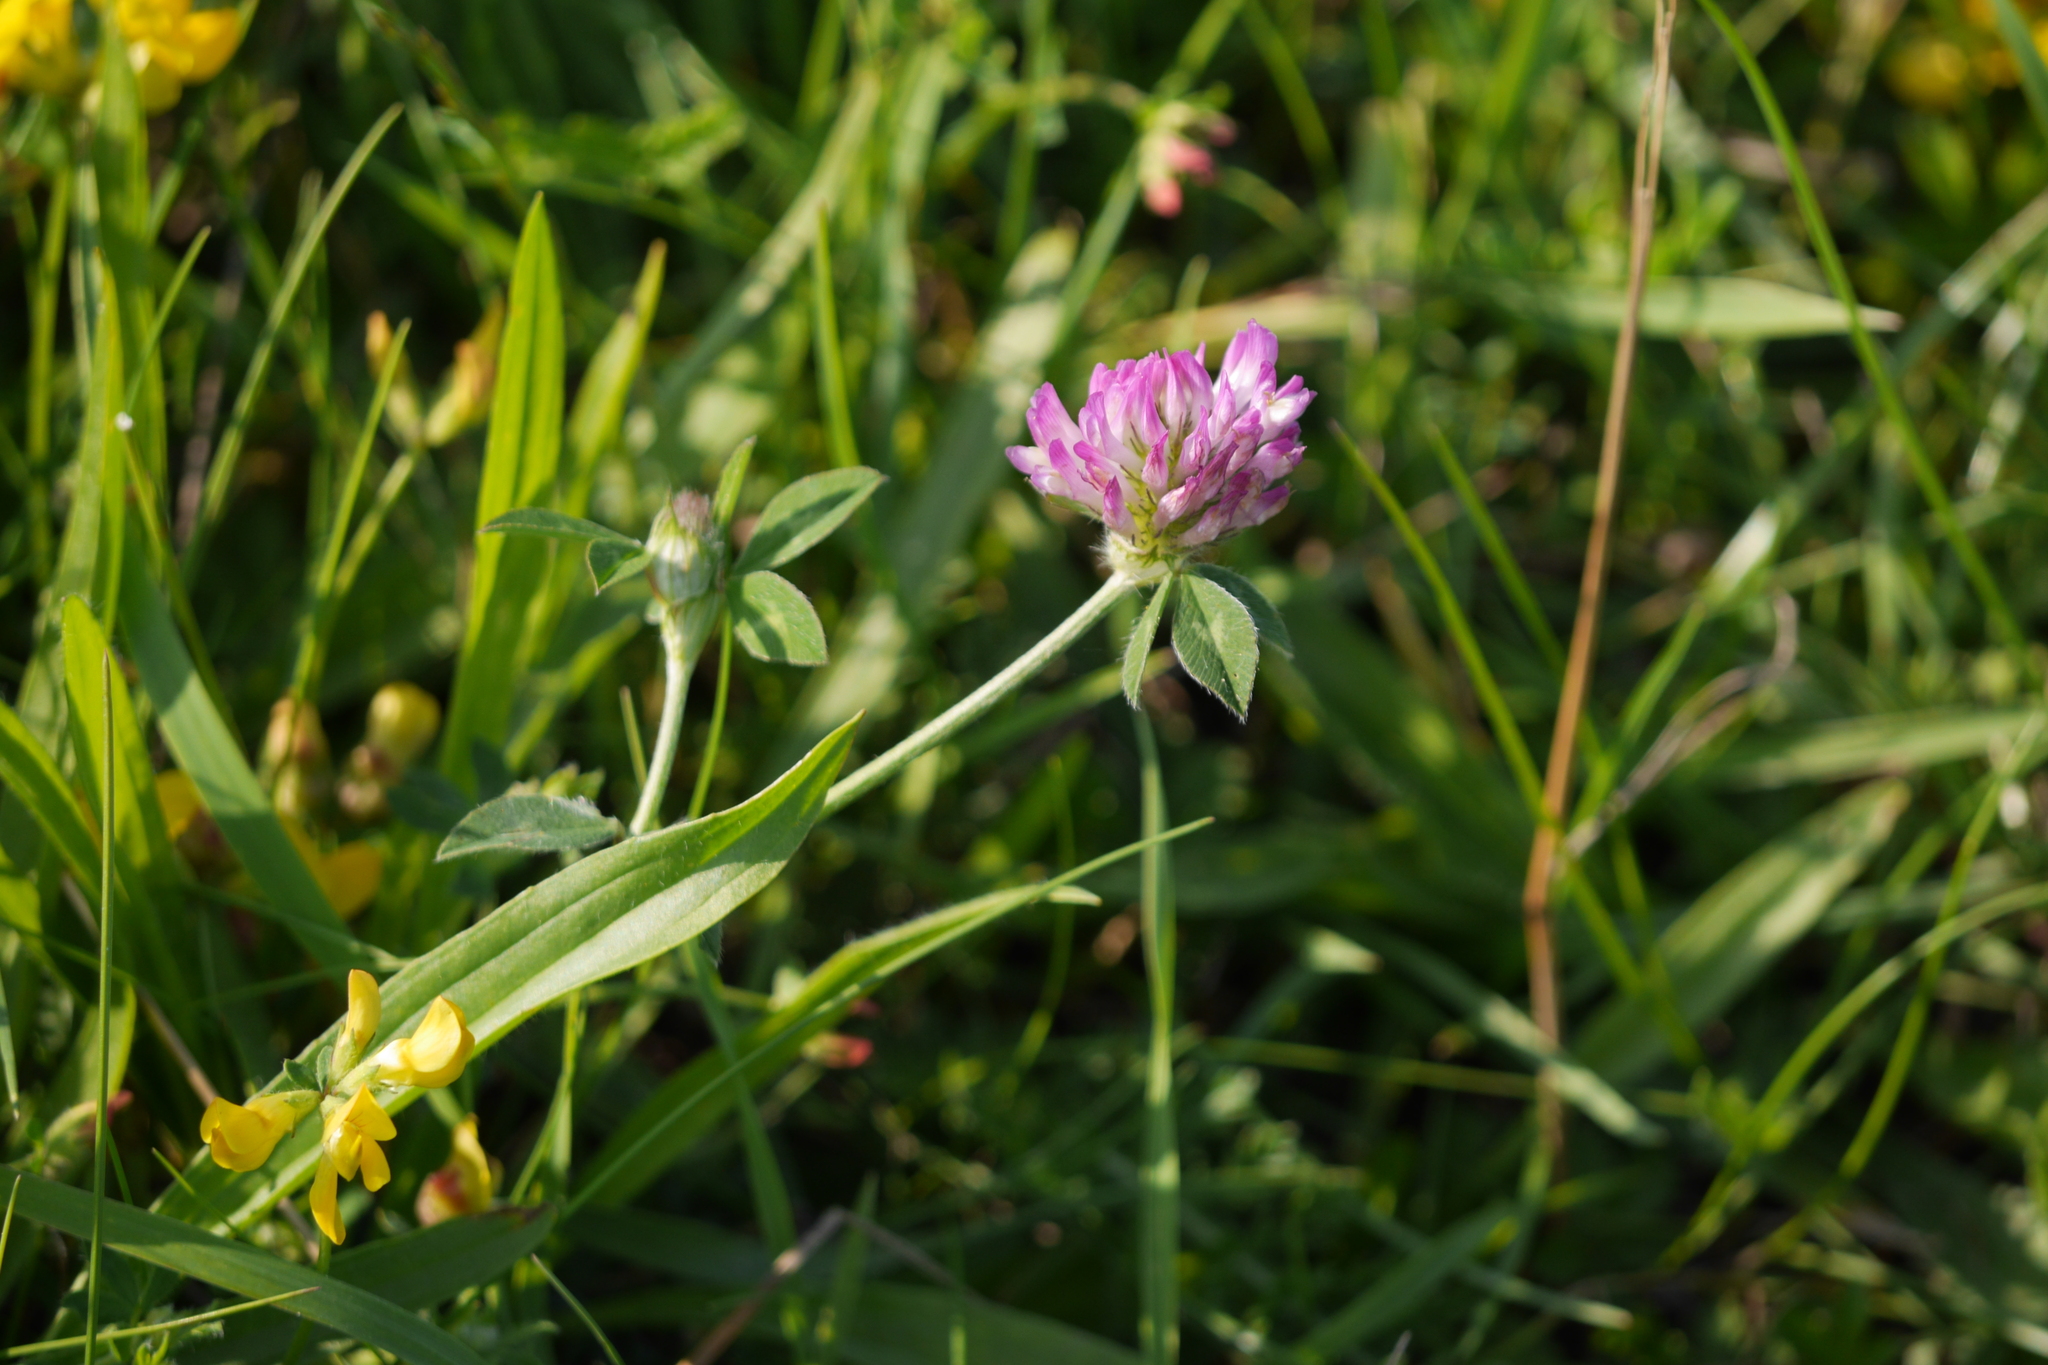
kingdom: Plantae
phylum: Tracheophyta
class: Magnoliopsida
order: Fabales
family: Fabaceae
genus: Trifolium
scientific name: Trifolium pratense
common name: Red clover
